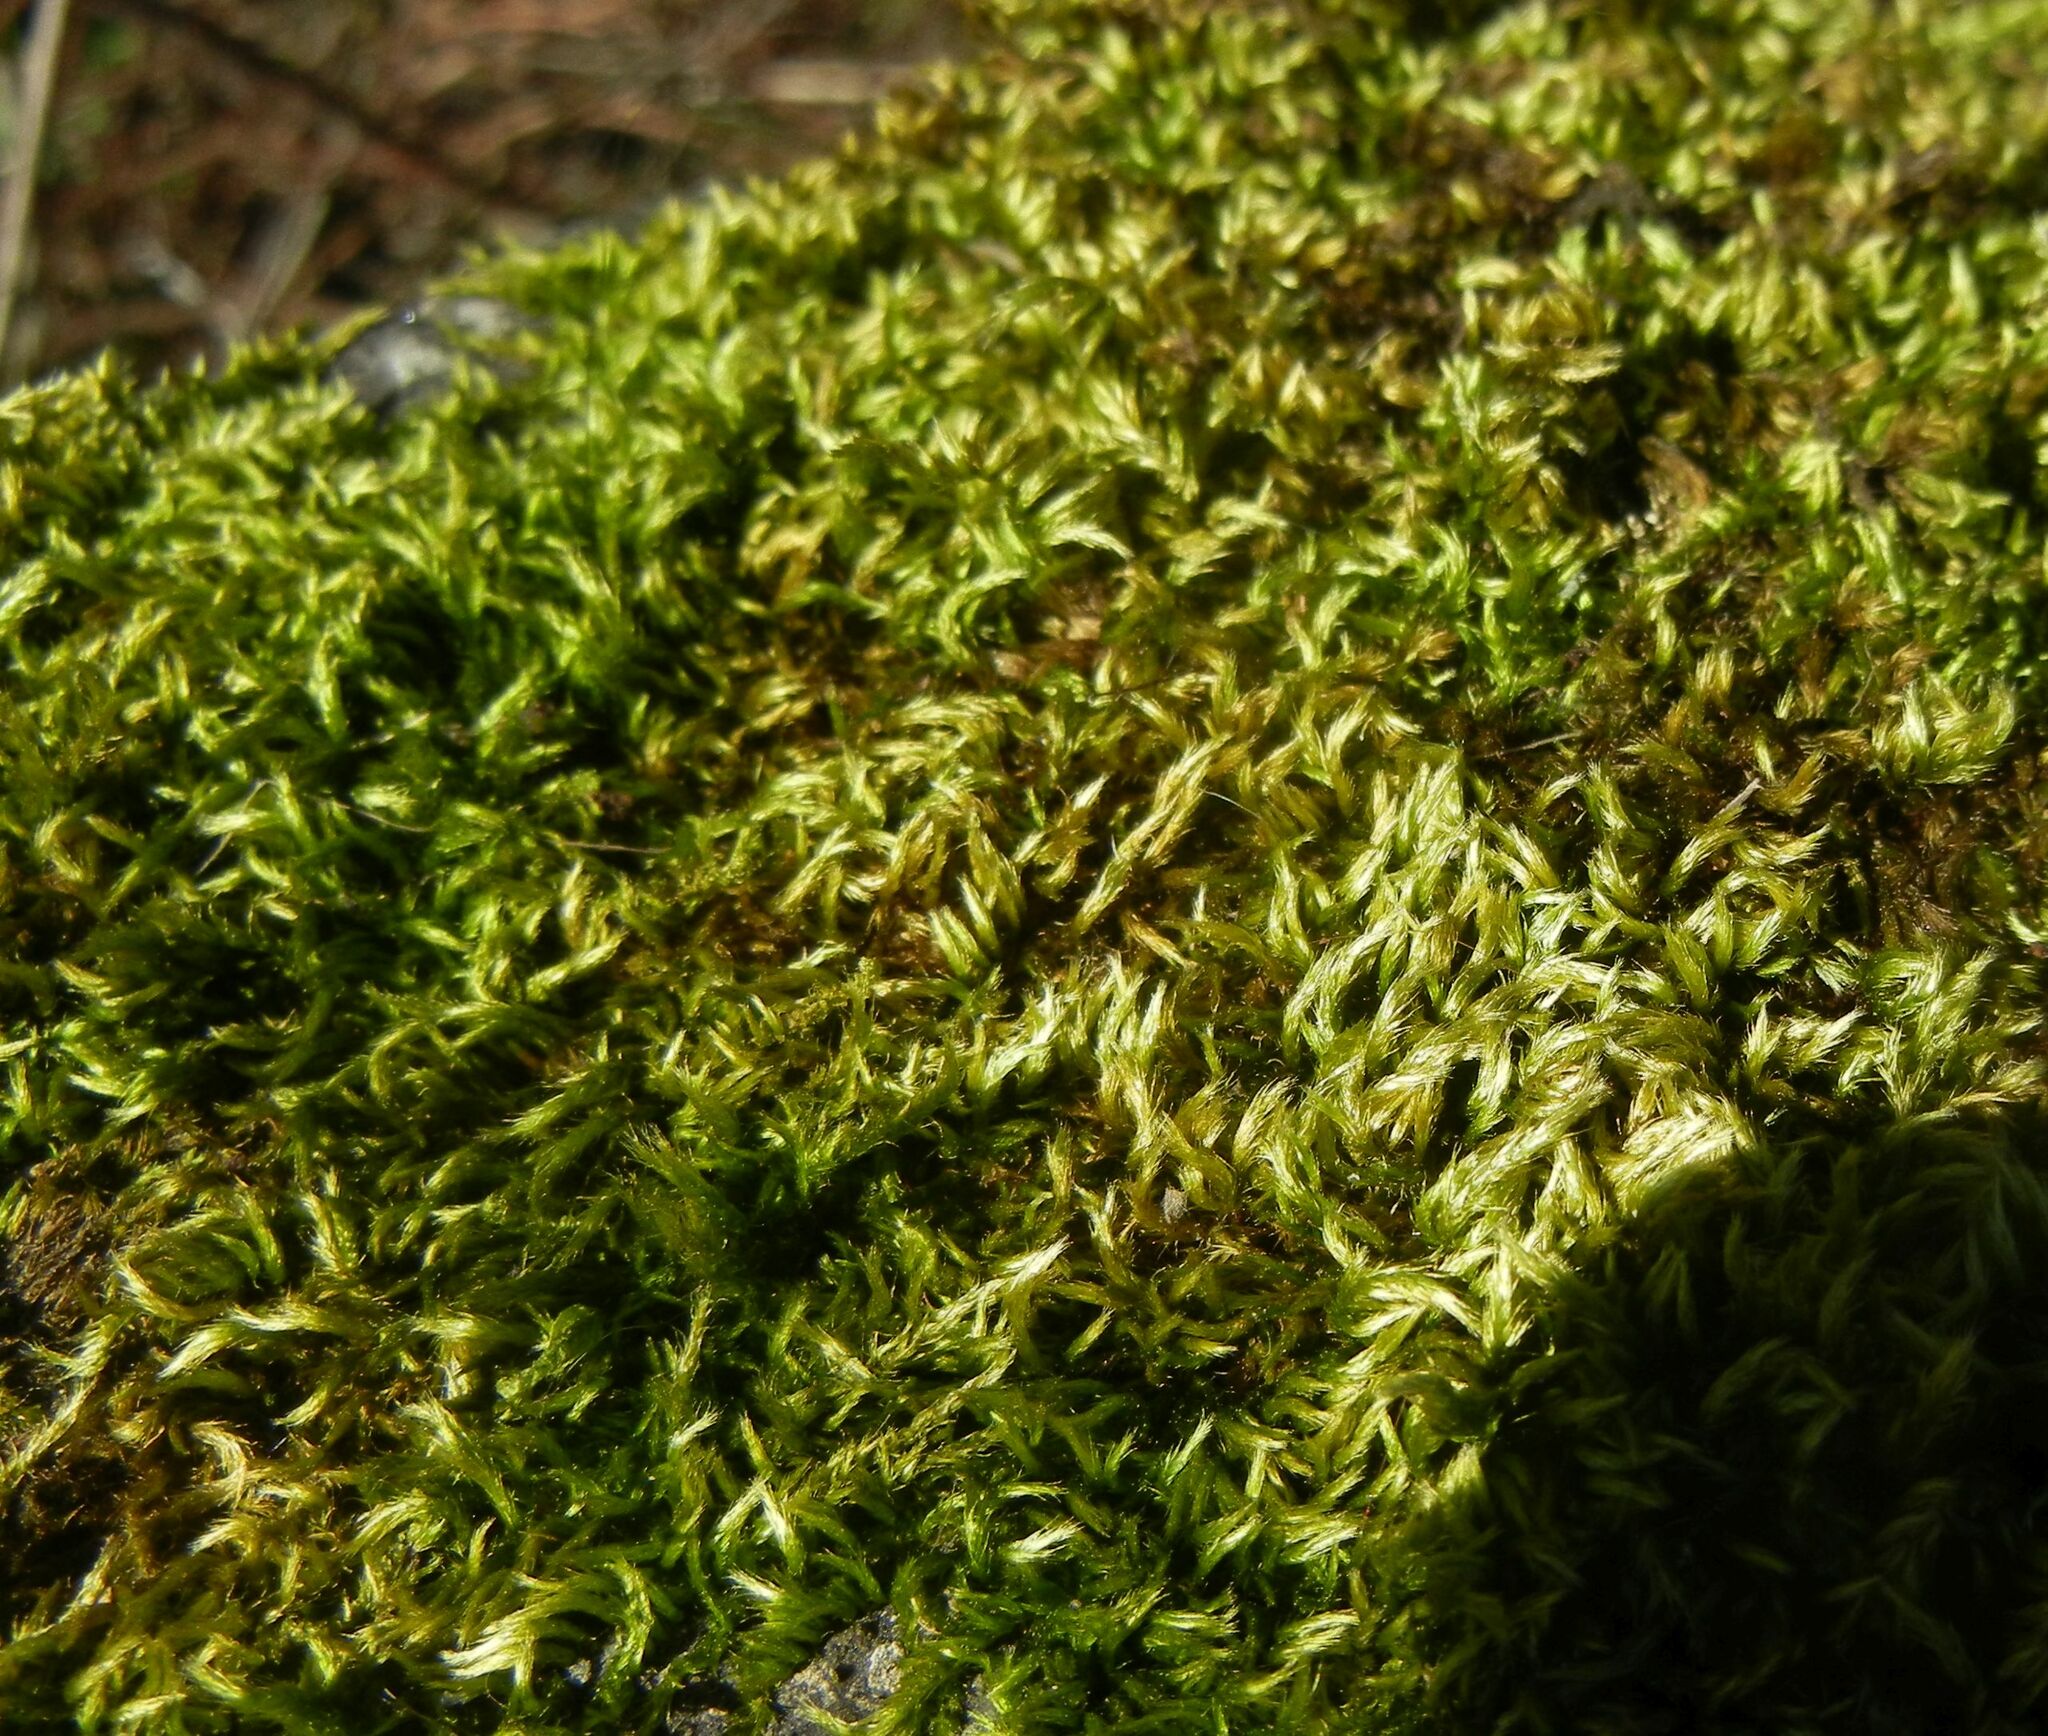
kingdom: Plantae
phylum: Bryophyta
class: Bryopsida
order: Hypnales
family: Brachytheciaceae
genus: Homalothecium
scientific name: Homalothecium sericeum
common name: Silky wall feather-moss
